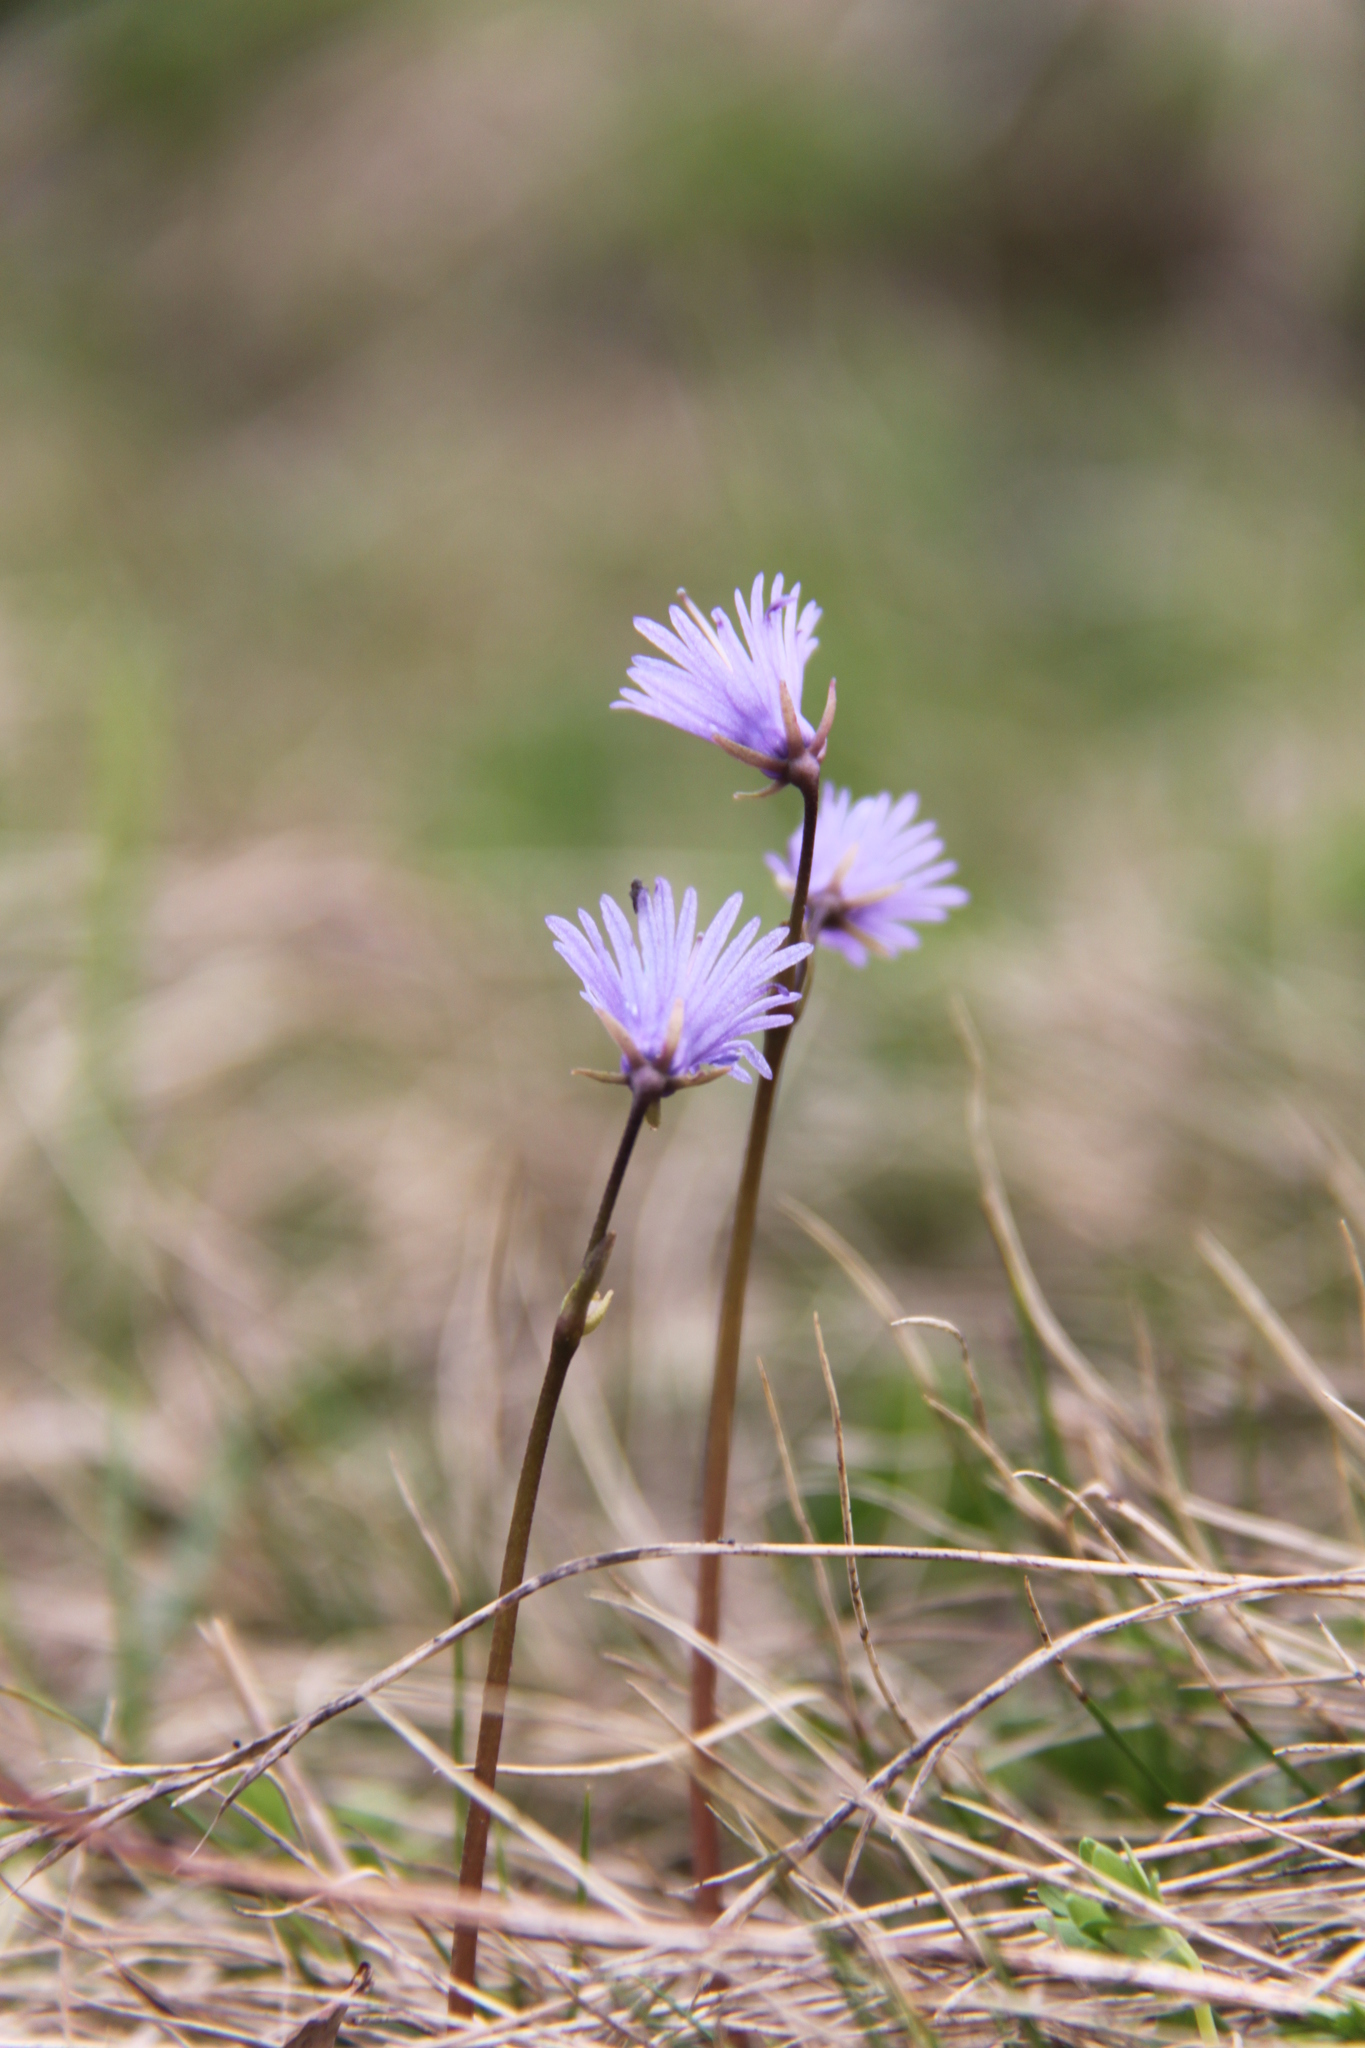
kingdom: Plantae
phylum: Tracheophyta
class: Magnoliopsida
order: Ericales
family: Primulaceae
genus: Soldanella
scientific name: Soldanella alpina
